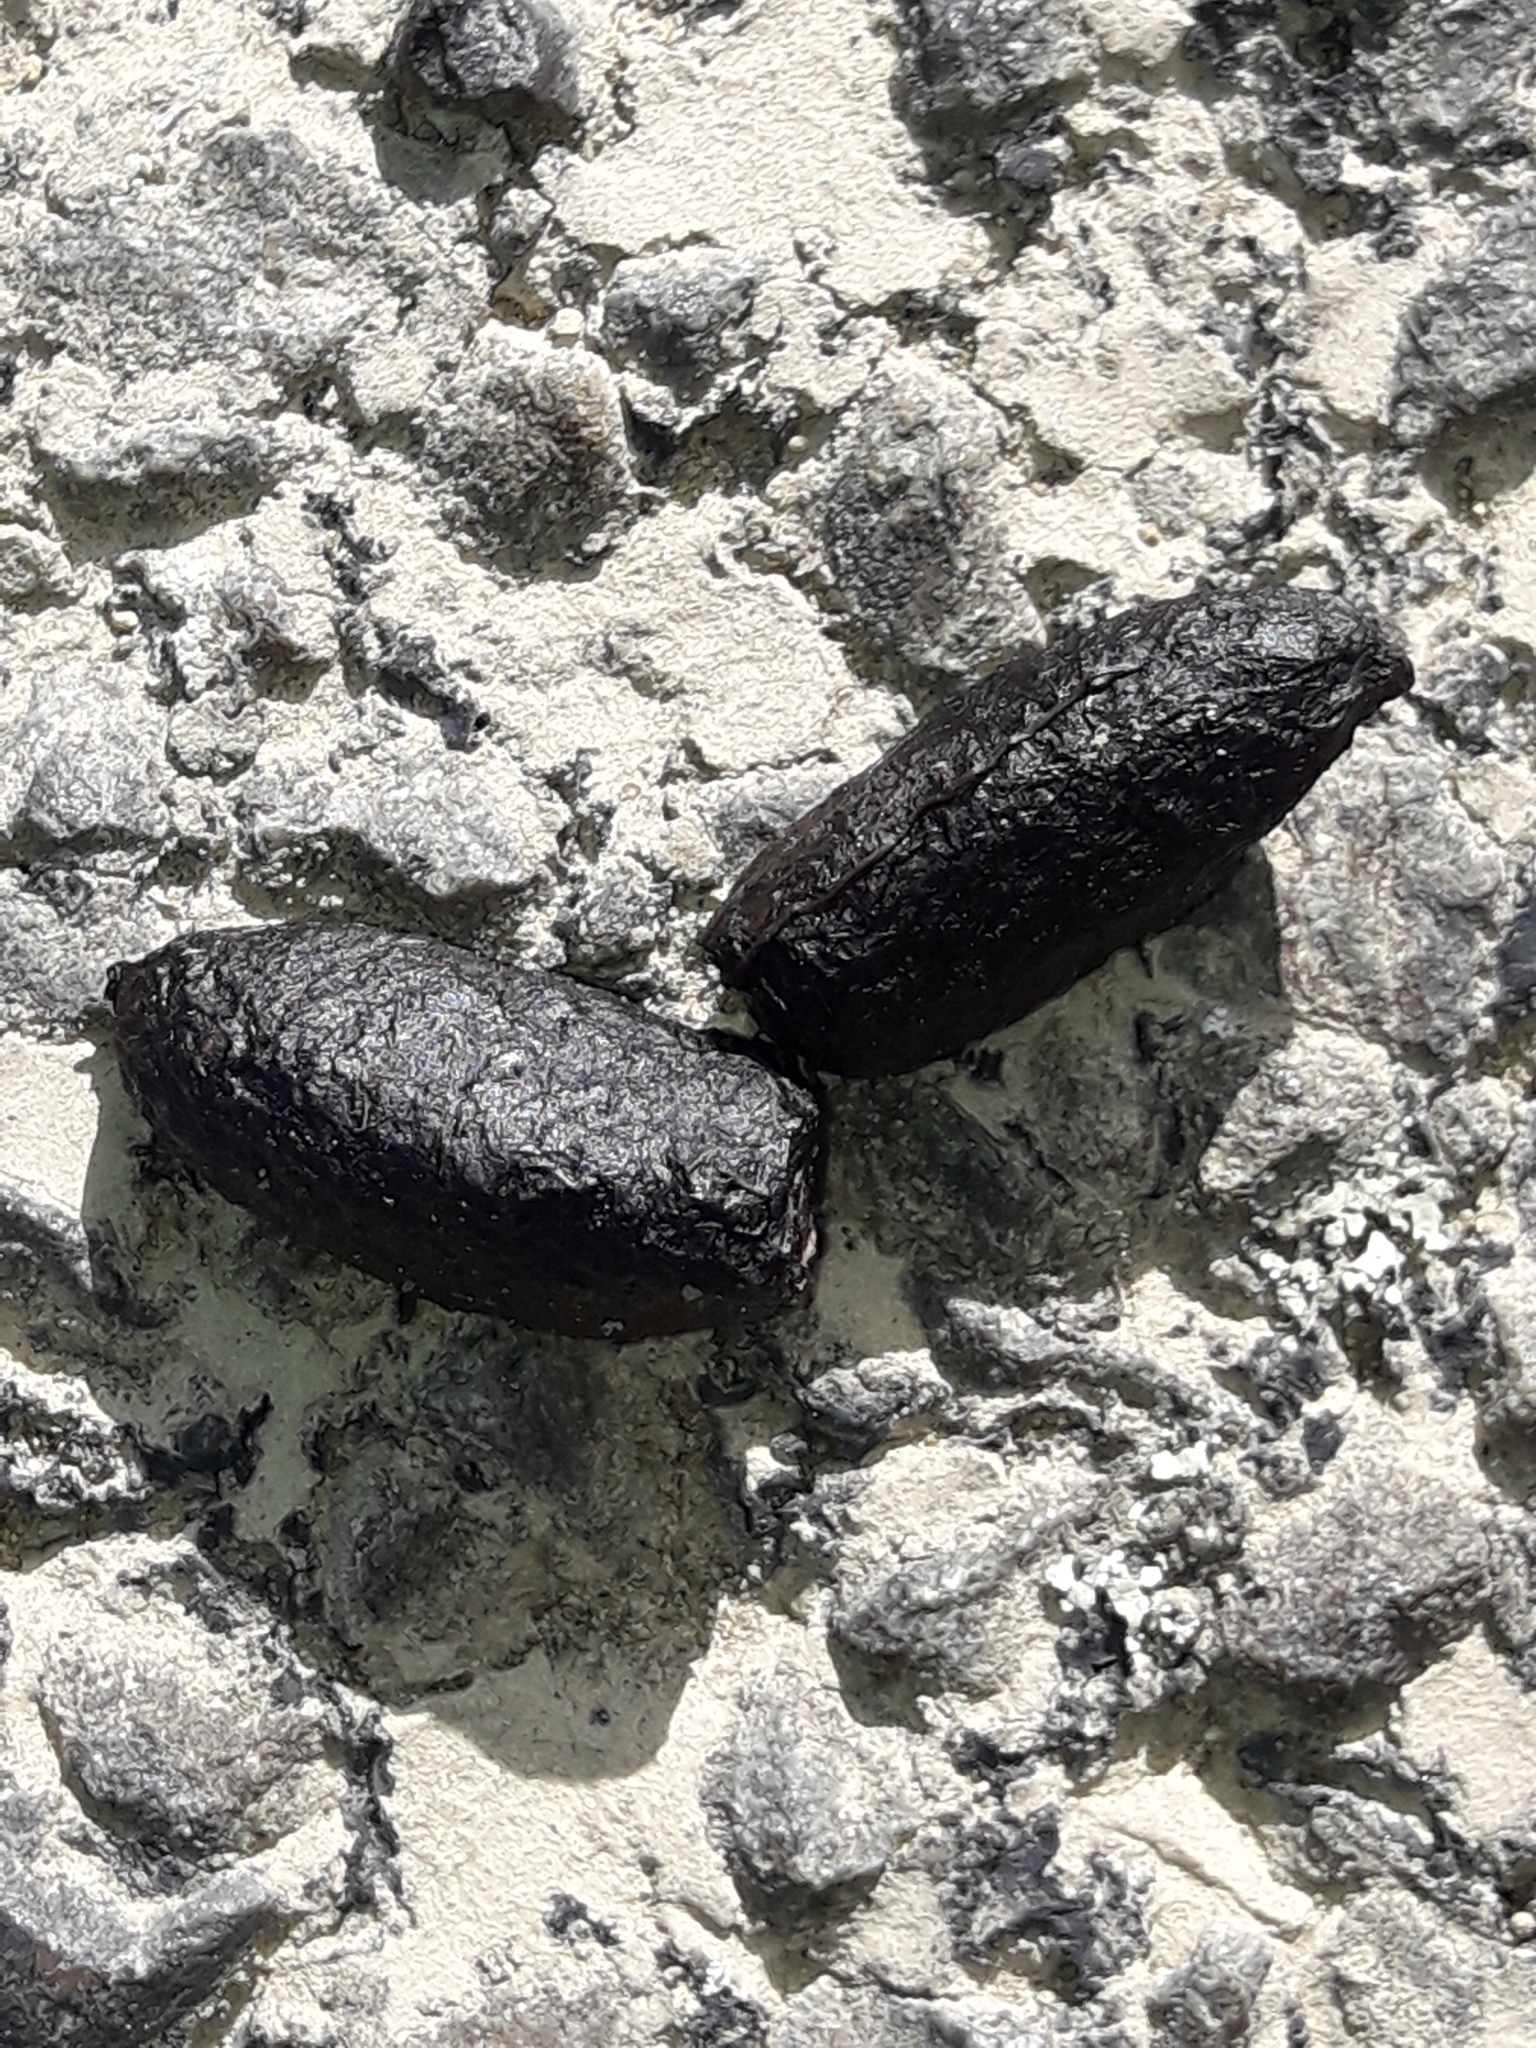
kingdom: Animalia
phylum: Chordata
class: Mammalia
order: Diprotodontia
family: Phalangeridae
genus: Trichosurus
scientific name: Trichosurus vulpecula
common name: Common brushtail
